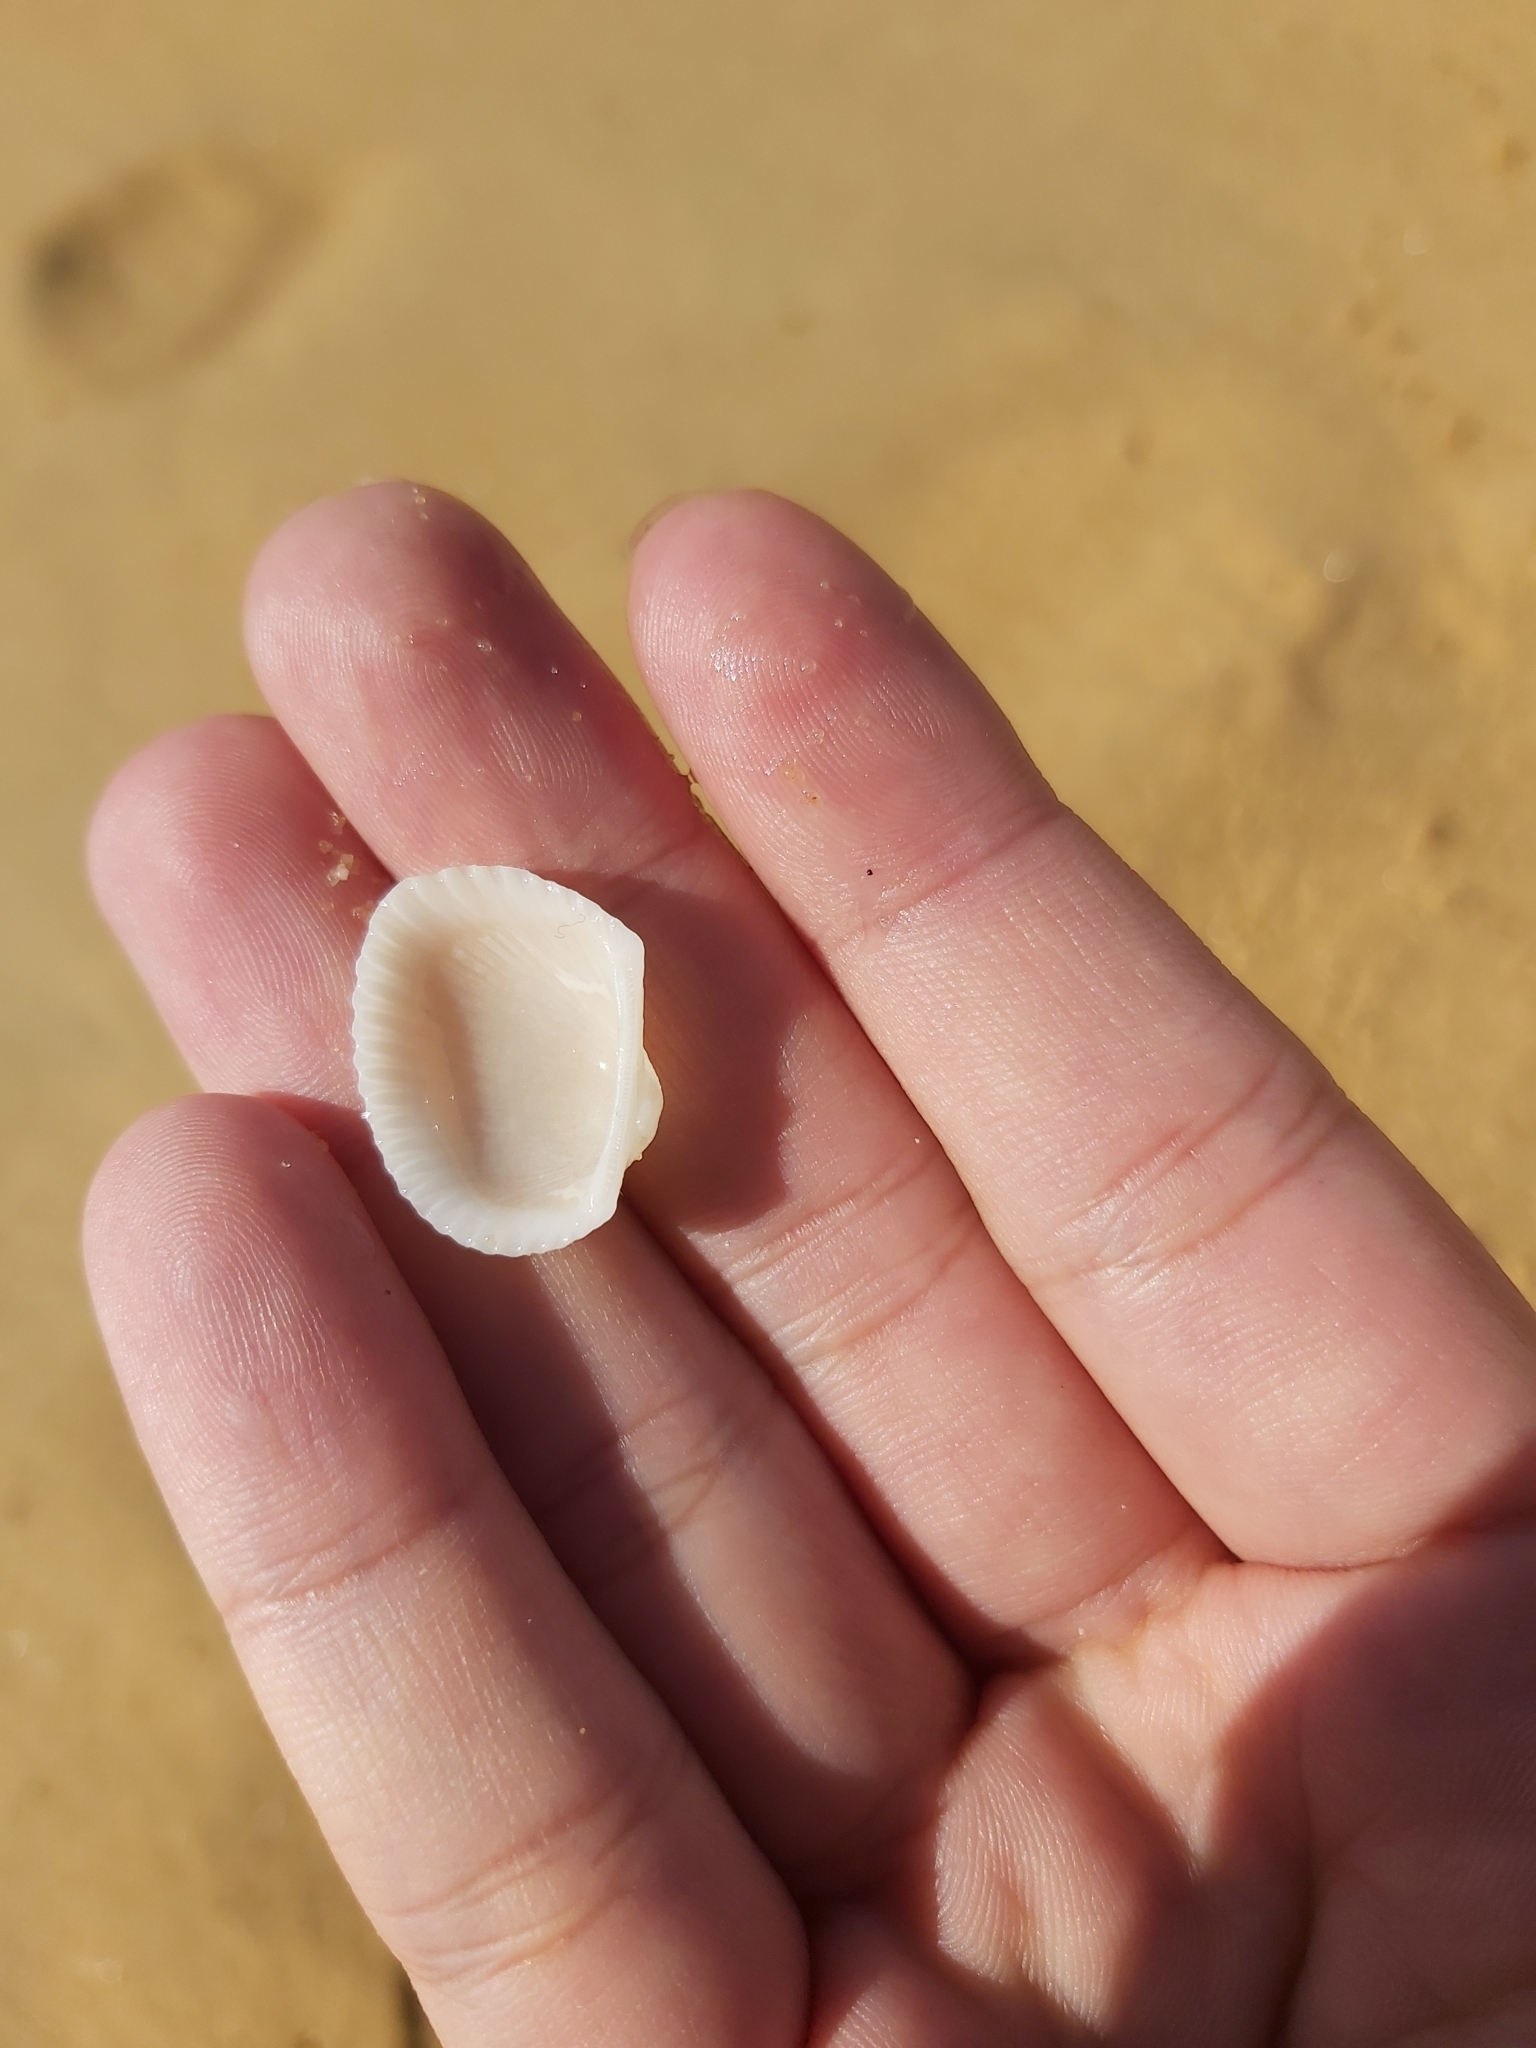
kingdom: Animalia
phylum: Mollusca
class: Bivalvia
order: Arcida
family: Arcidae
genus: Anadara
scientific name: Anadara trapezia
